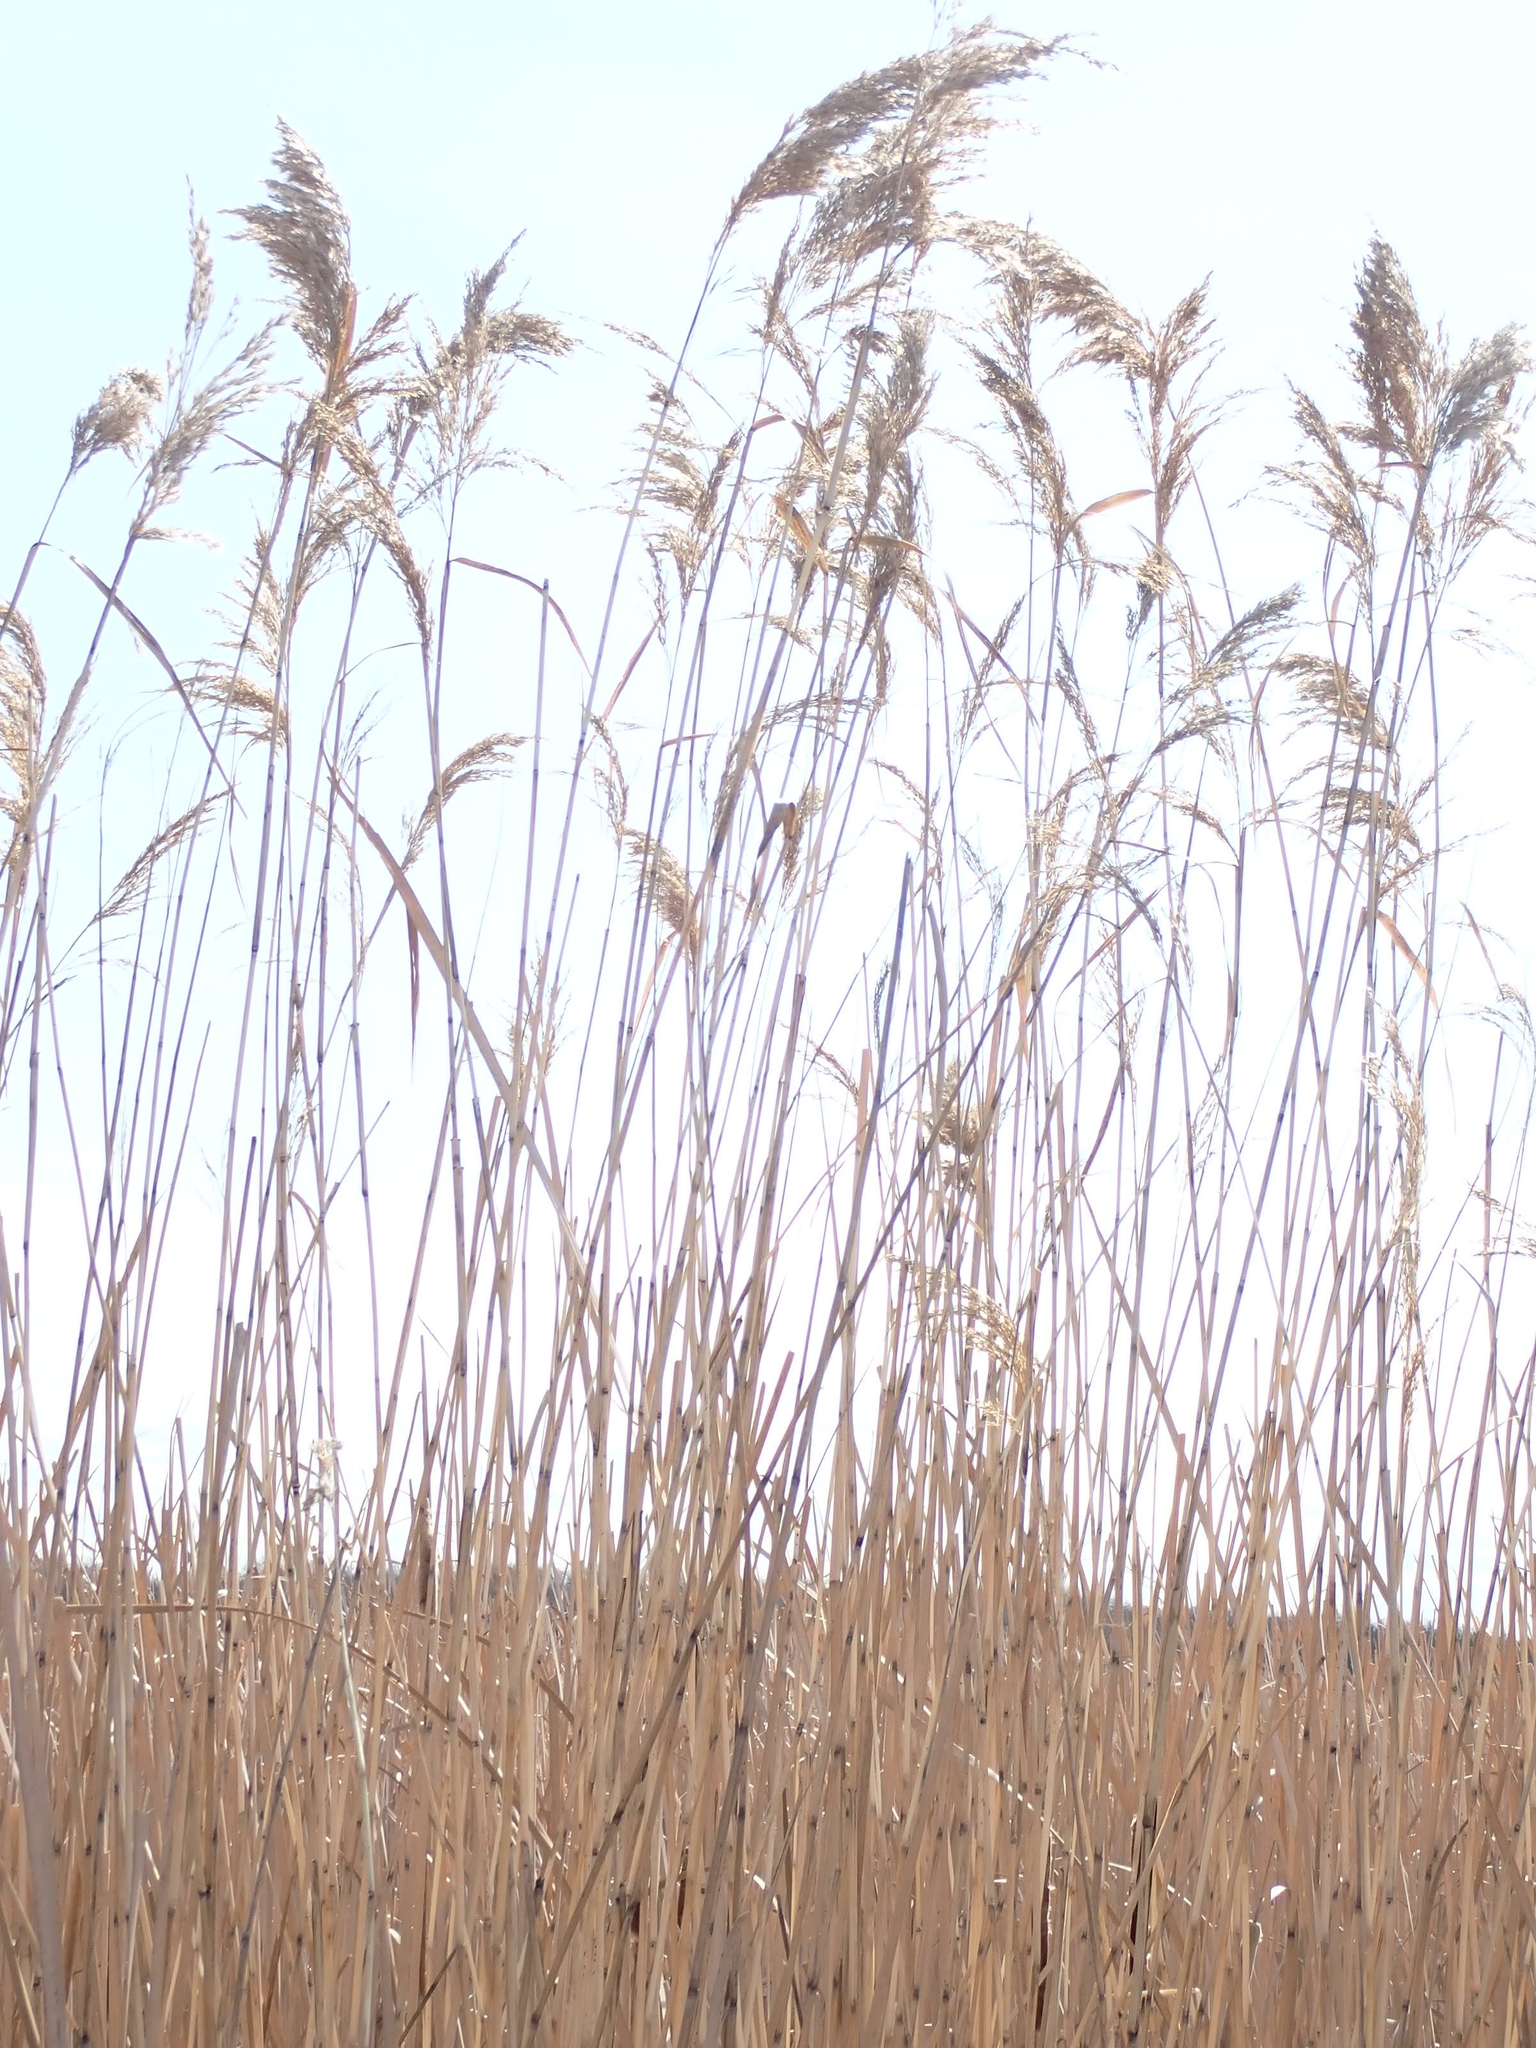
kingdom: Plantae
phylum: Tracheophyta
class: Liliopsida
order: Poales
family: Poaceae
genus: Phragmites
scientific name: Phragmites australis
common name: Common reed
